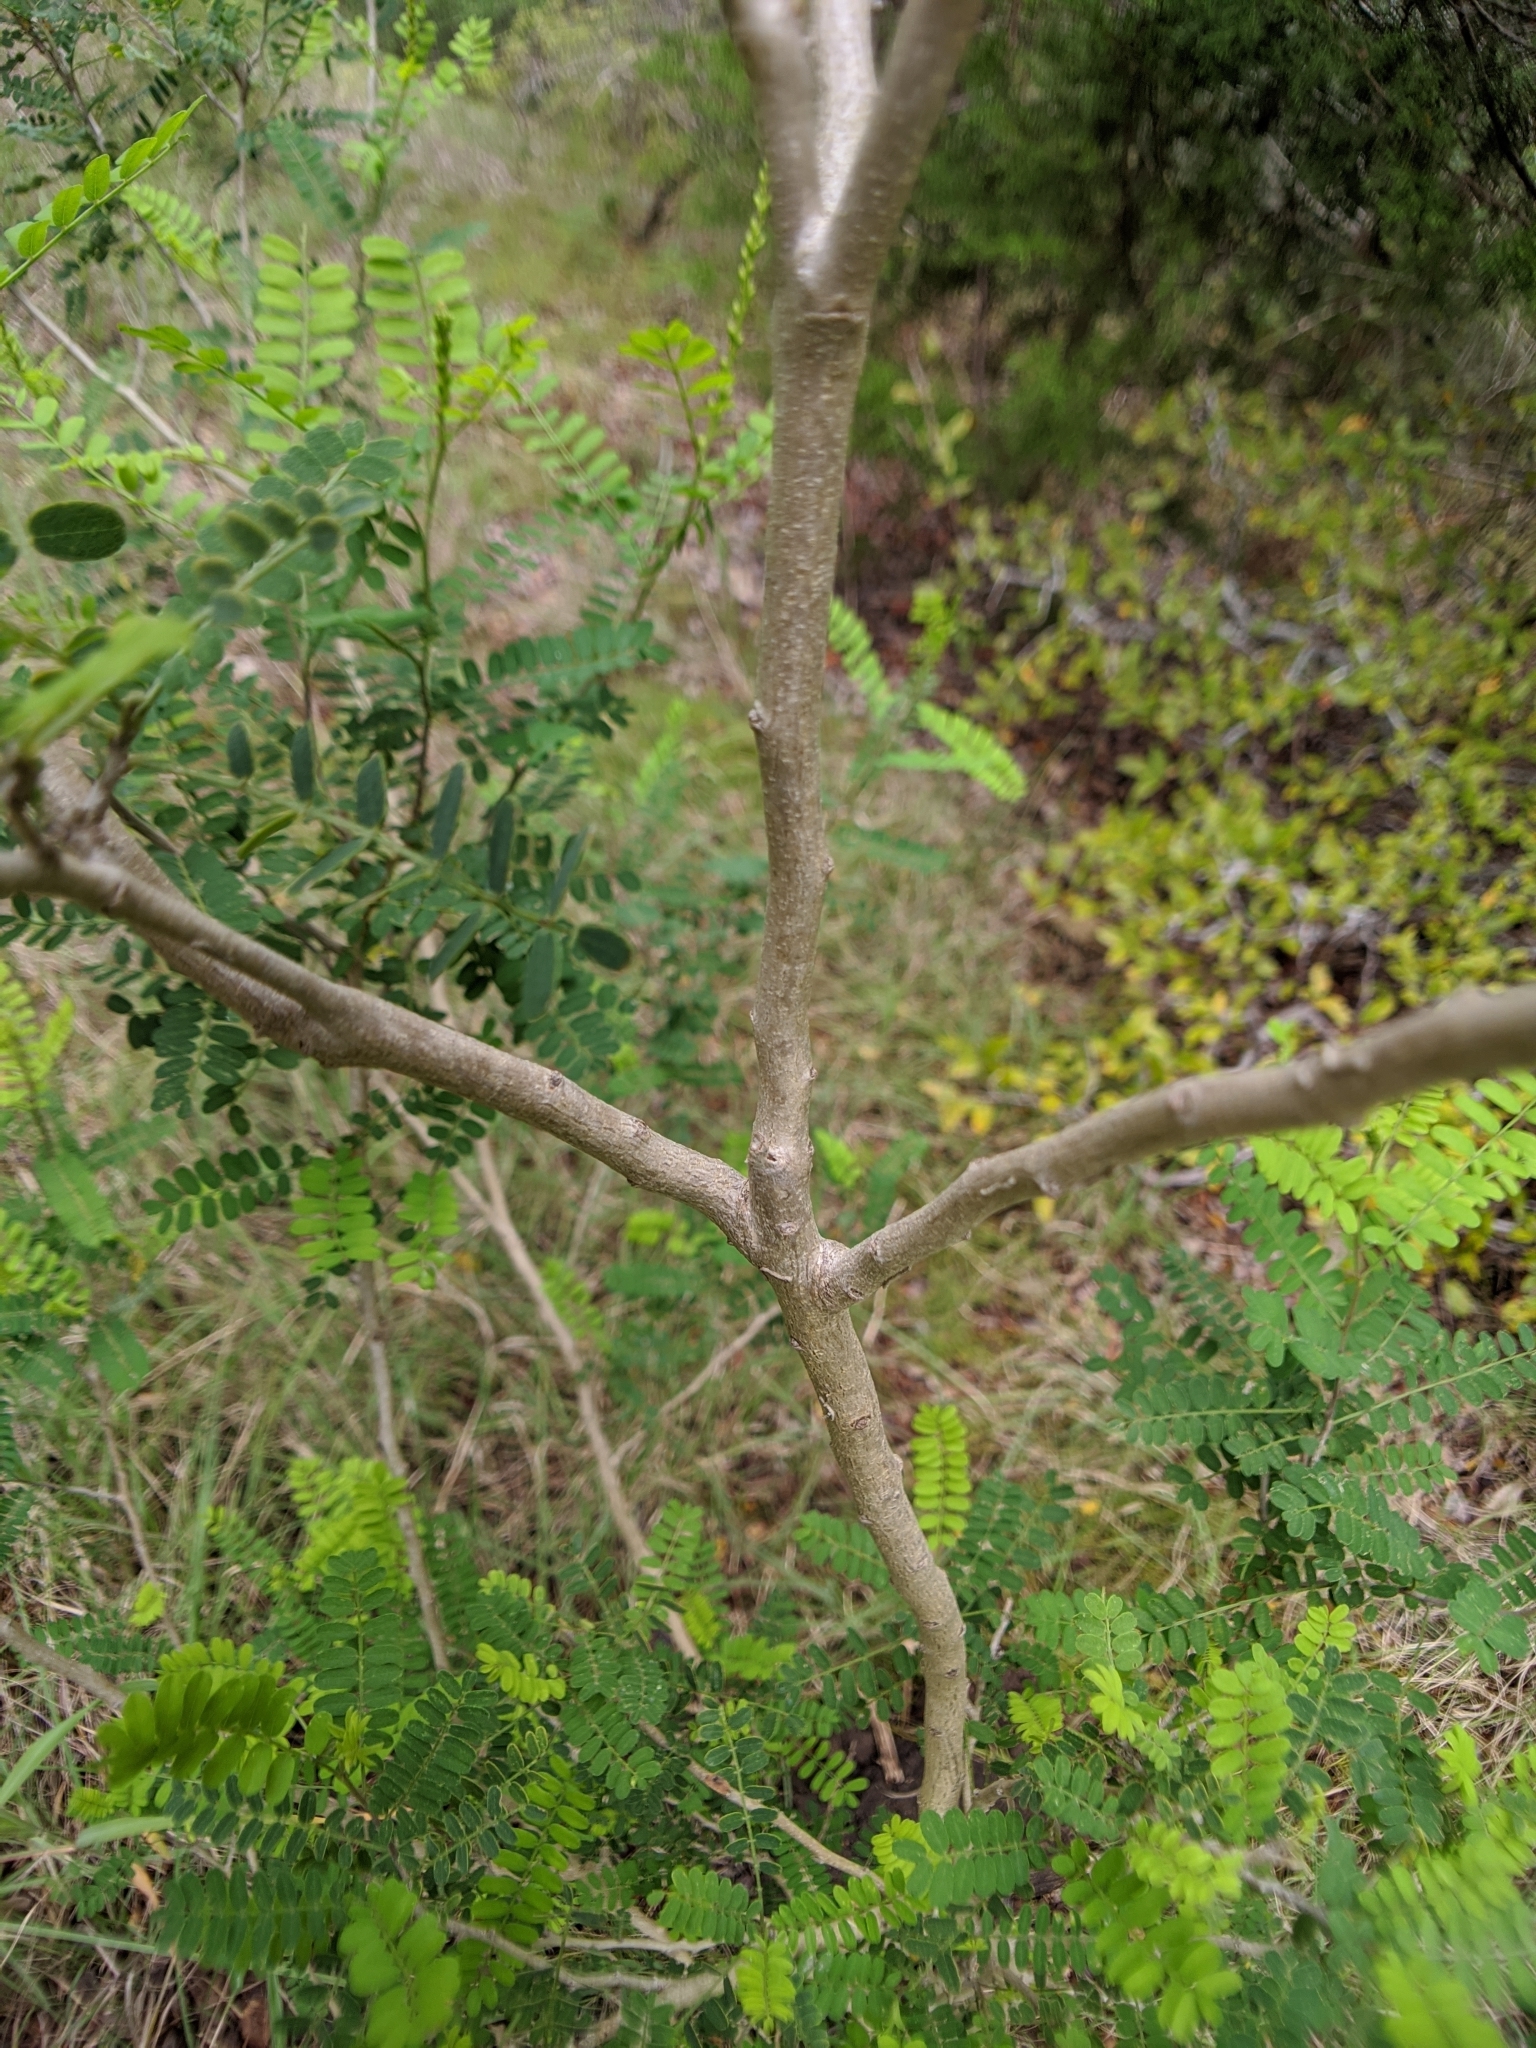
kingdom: Plantae
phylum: Tracheophyta
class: Magnoliopsida
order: Fabales
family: Fabaceae
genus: Eysenhardtia
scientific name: Eysenhardtia texana
